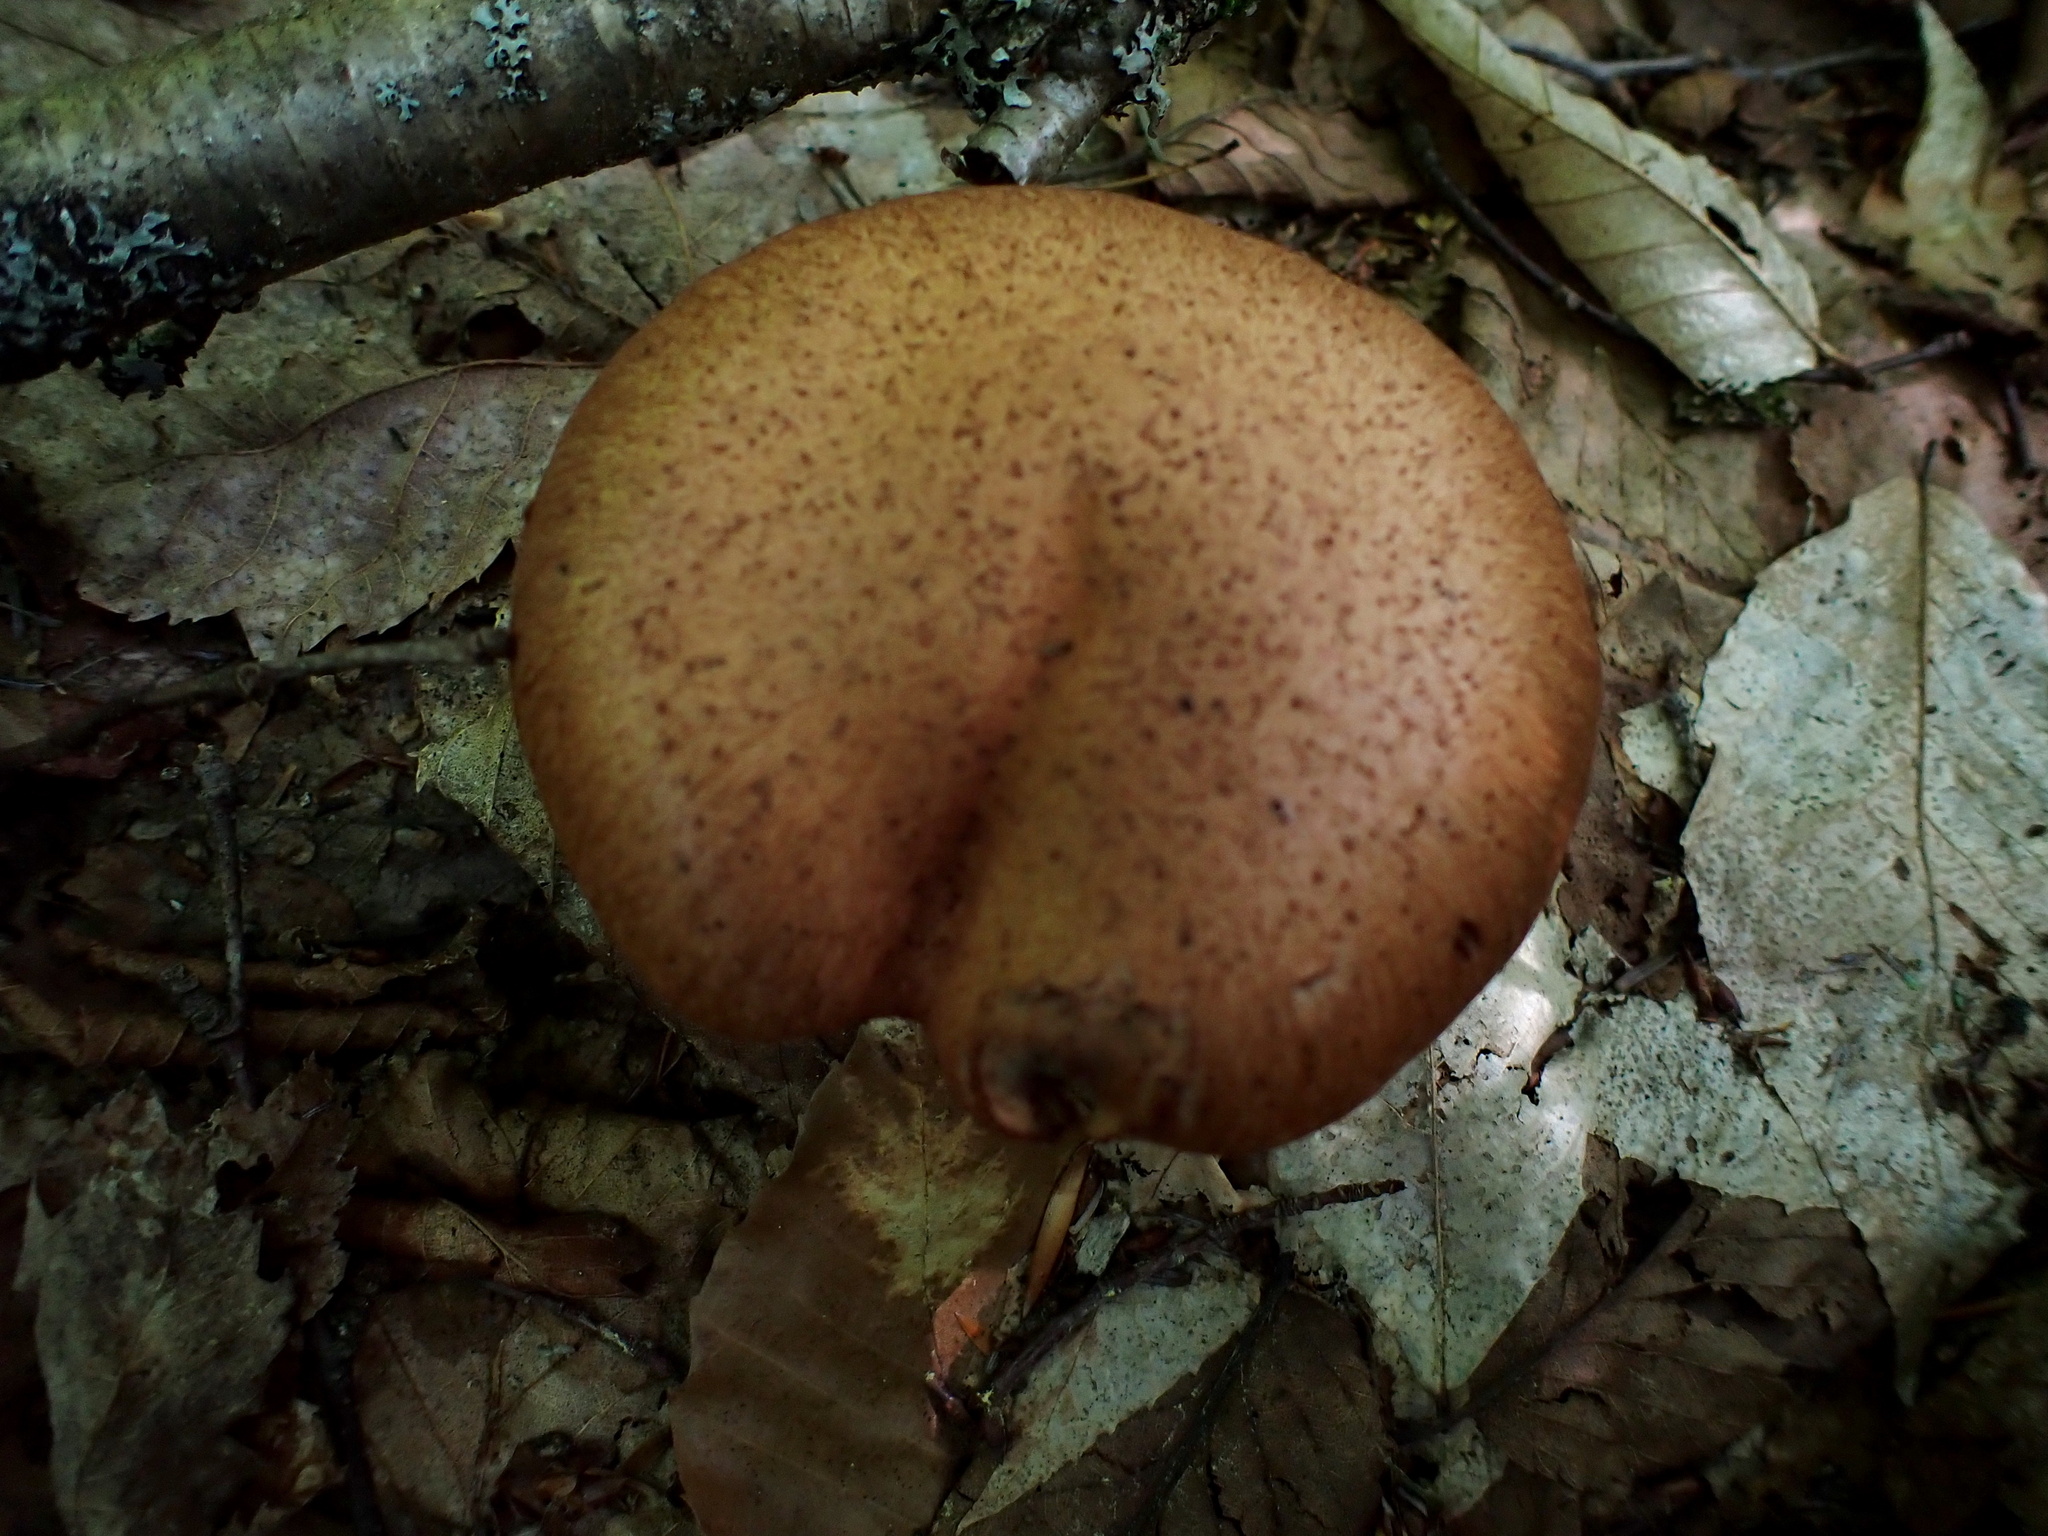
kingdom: Fungi
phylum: Basidiomycota
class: Agaricomycetes
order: Agaricales
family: Cortinariaceae
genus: Cortinarius
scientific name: Cortinarius armillatus
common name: Red banded webcap
